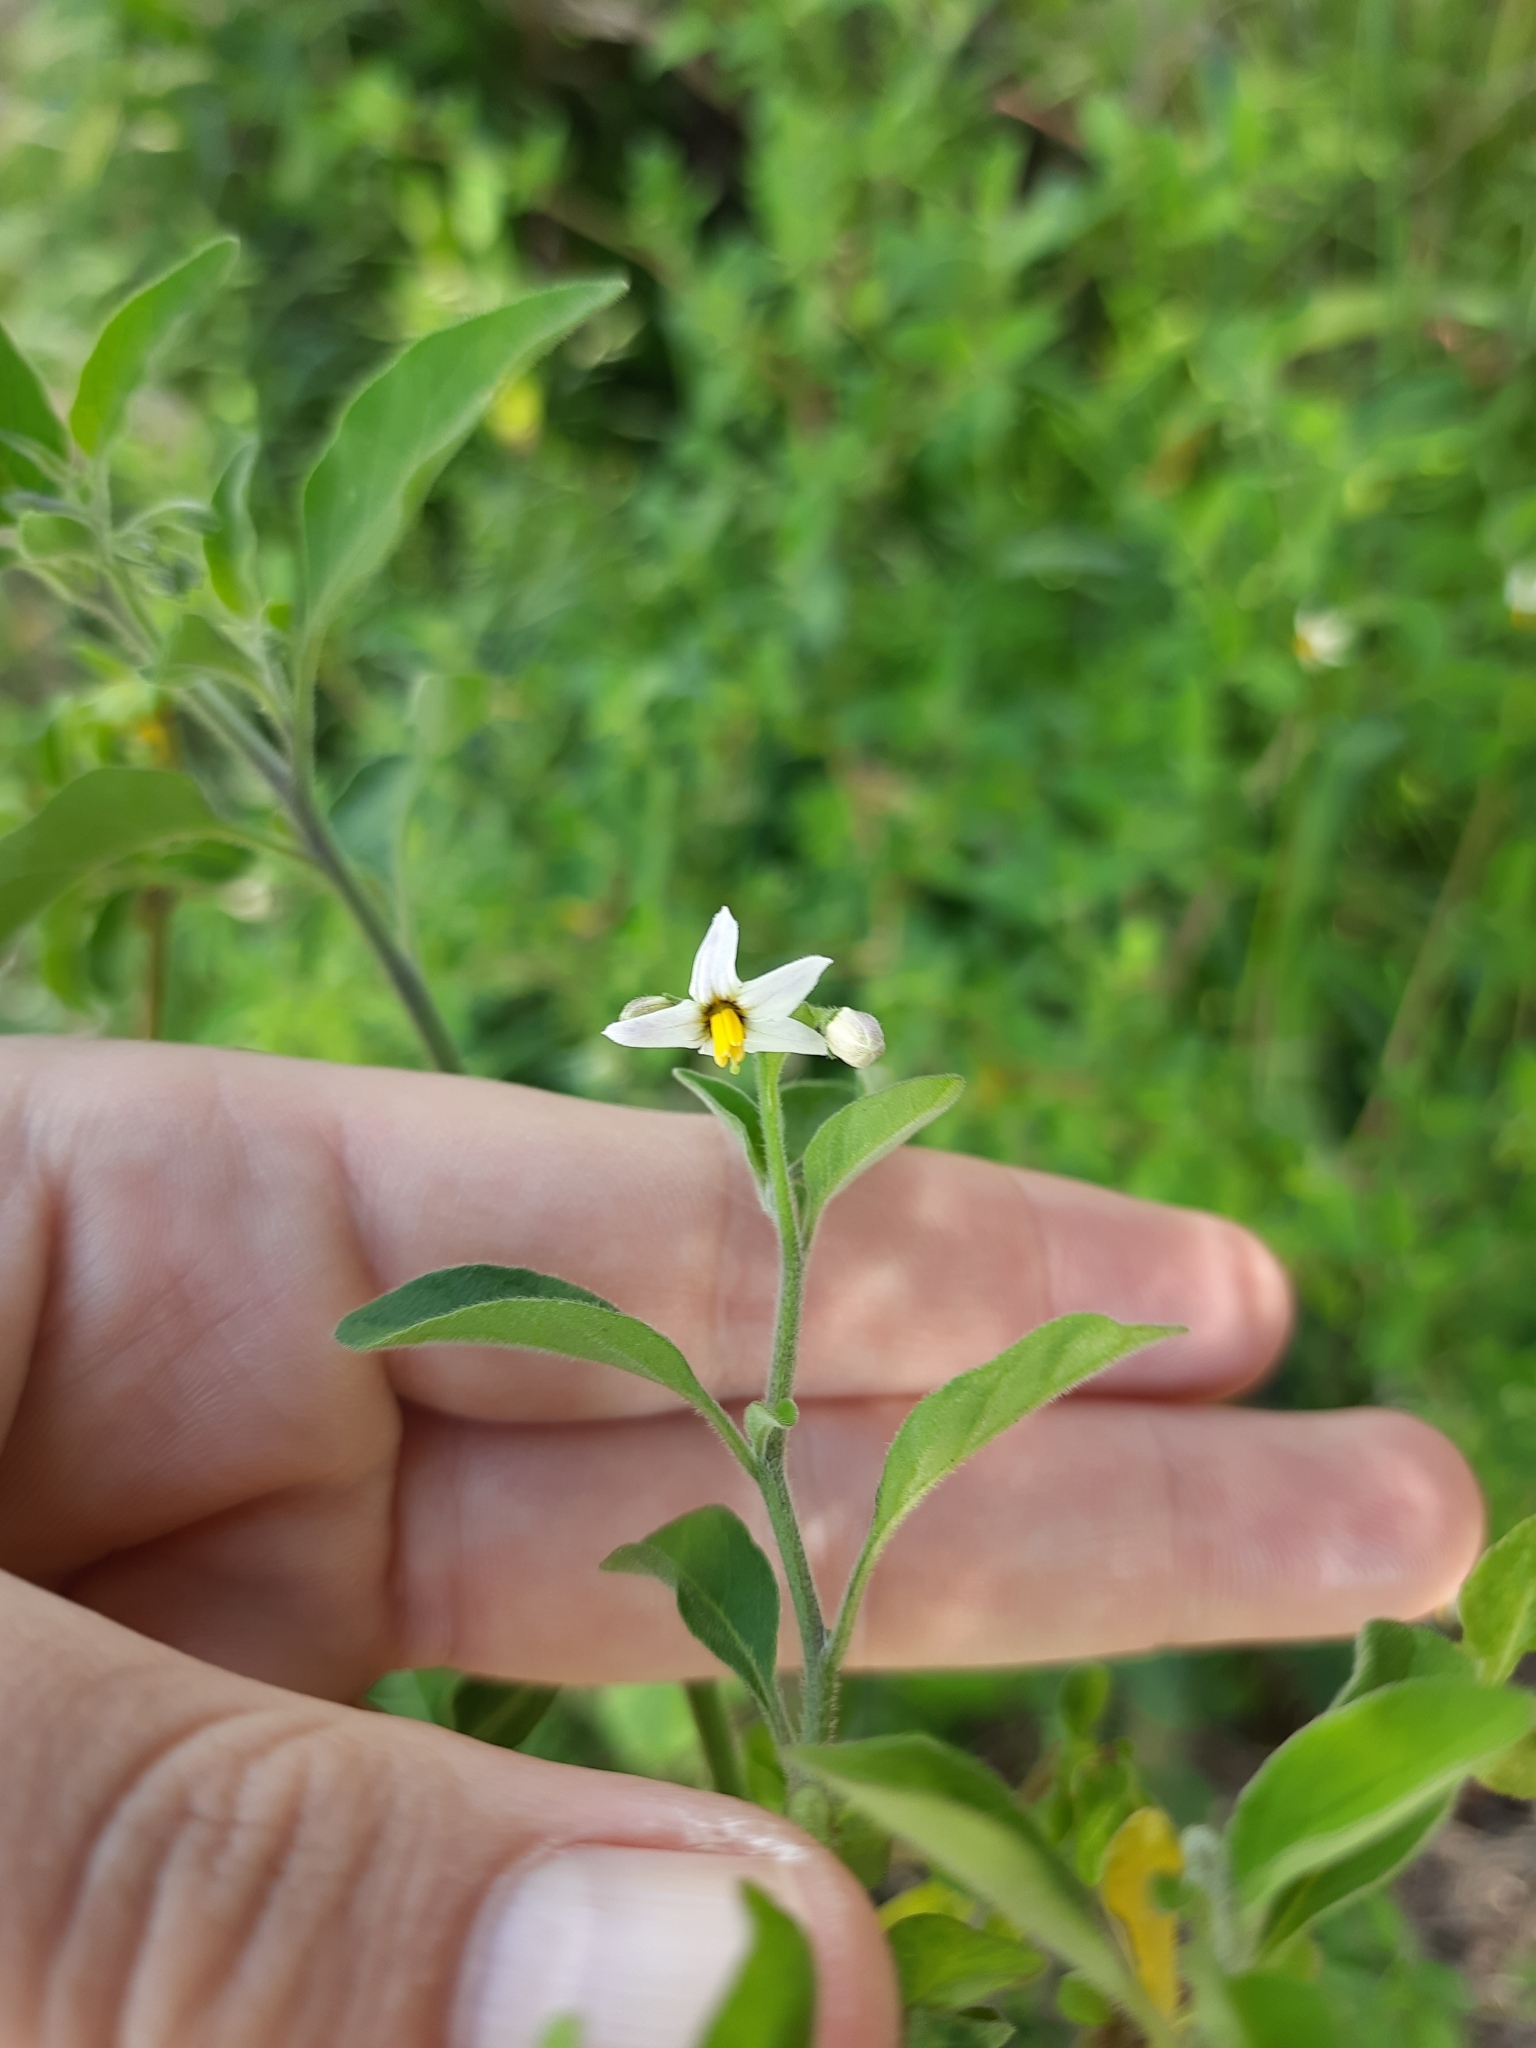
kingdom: Plantae
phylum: Tracheophyta
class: Magnoliopsida
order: Solanales
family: Solanaceae
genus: Solanum
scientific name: Solanum chenopodioides
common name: Tall nightshade
